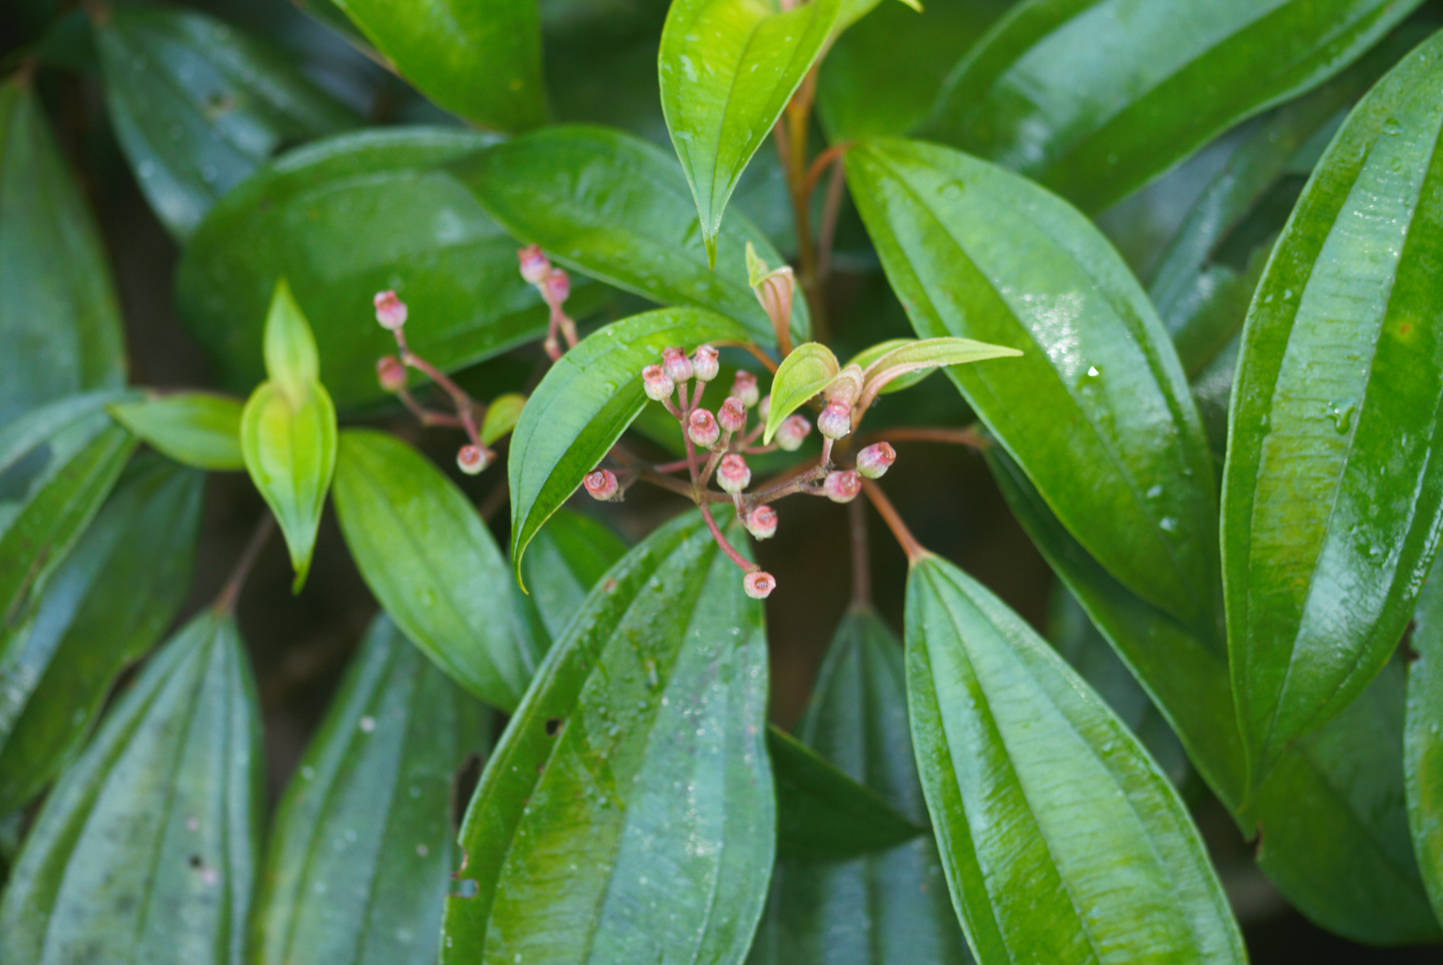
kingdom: Plantae
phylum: Tracheophyta
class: Magnoliopsida
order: Myrtales
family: Melastomataceae
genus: Miconia
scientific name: Miconia mirabilis
